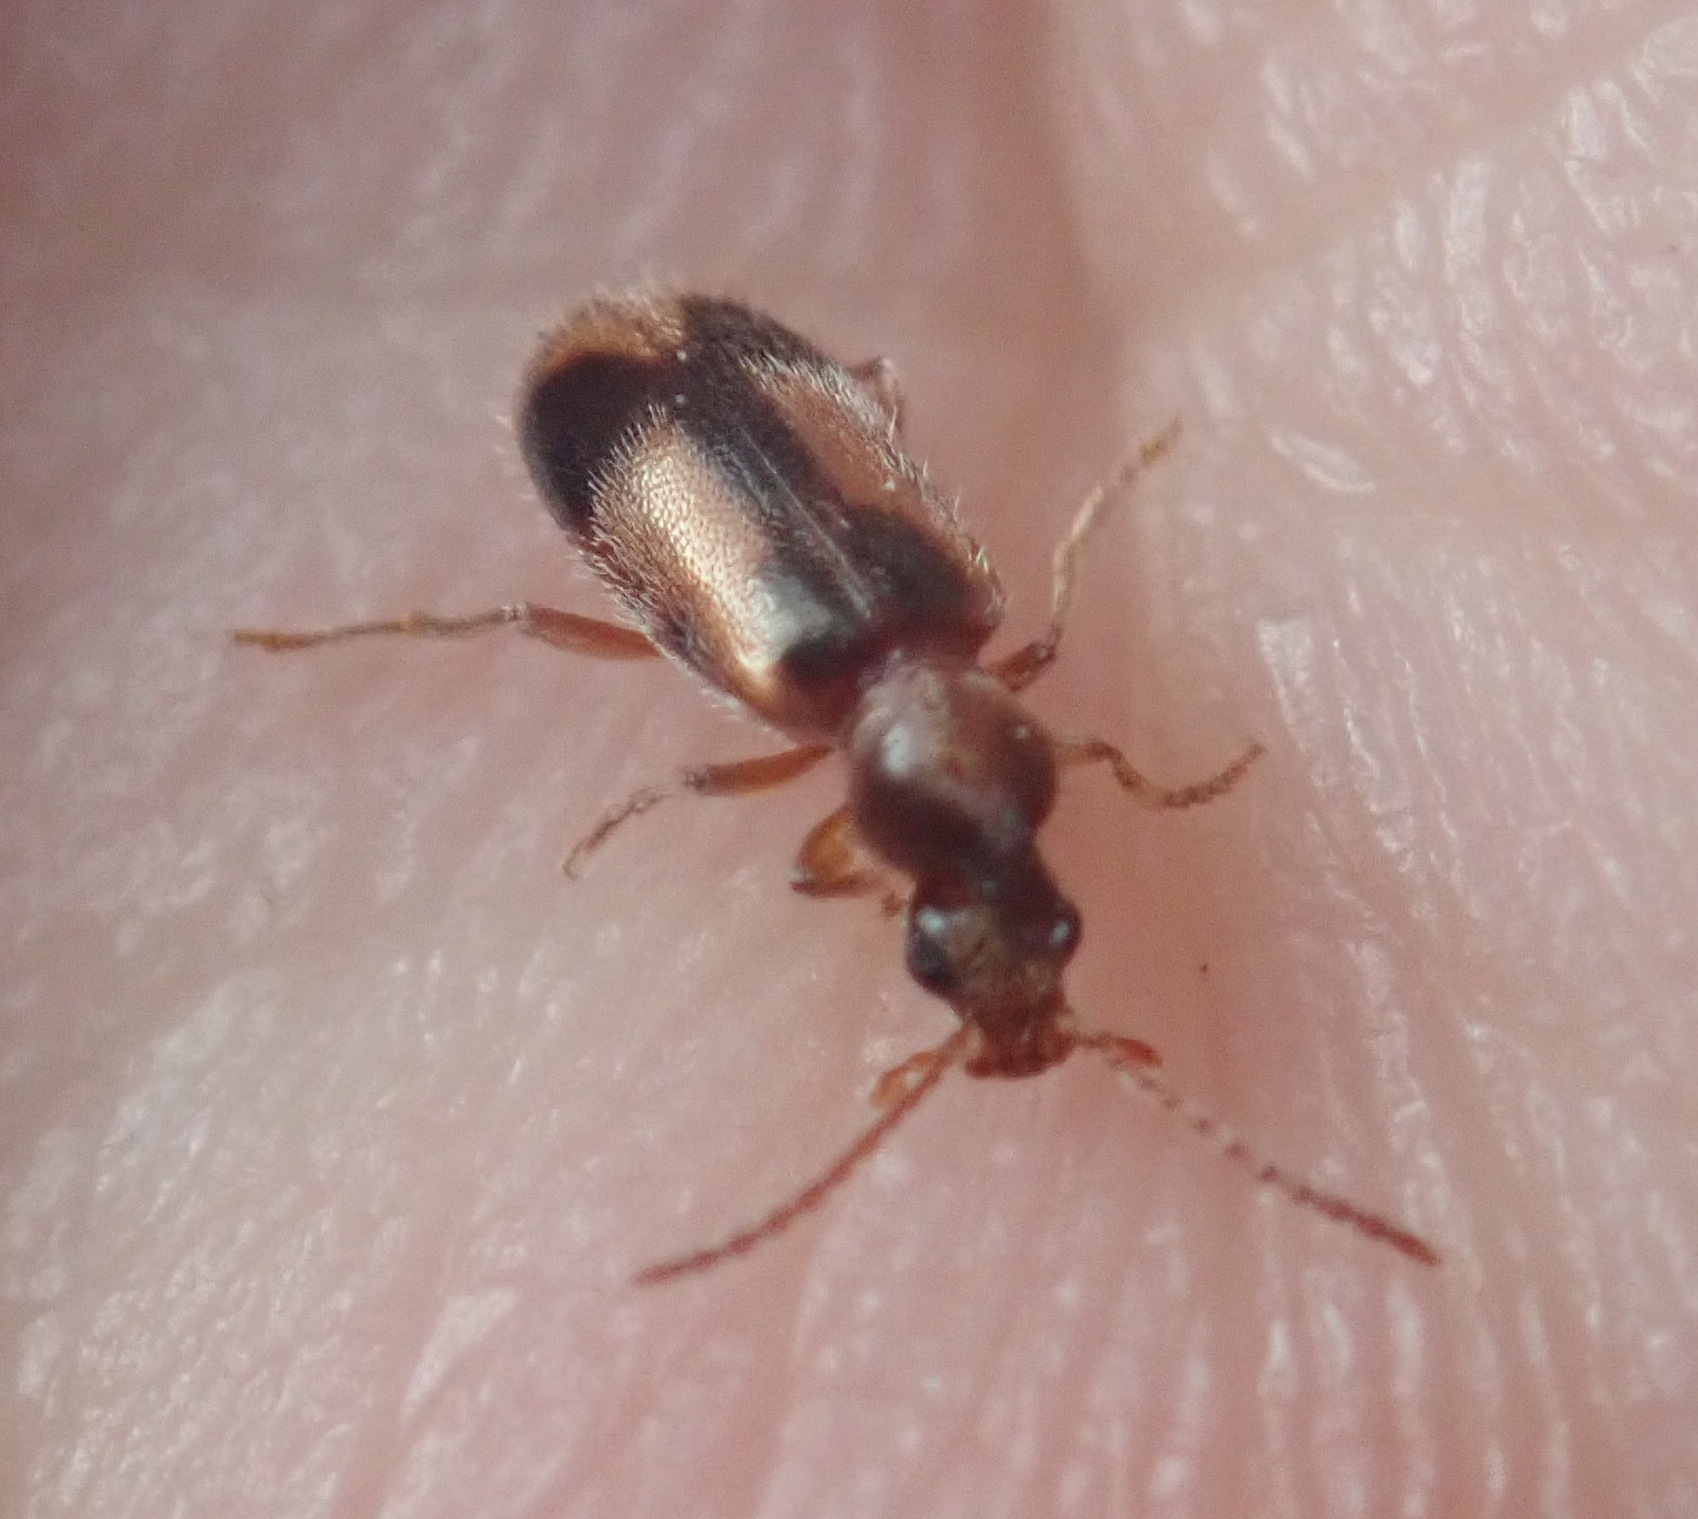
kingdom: Animalia
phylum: Arthropoda
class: Insecta
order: Coleoptera
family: Anthicidae
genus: Notoxus
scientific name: Notoxus monoceros
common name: Monoceros beetle
